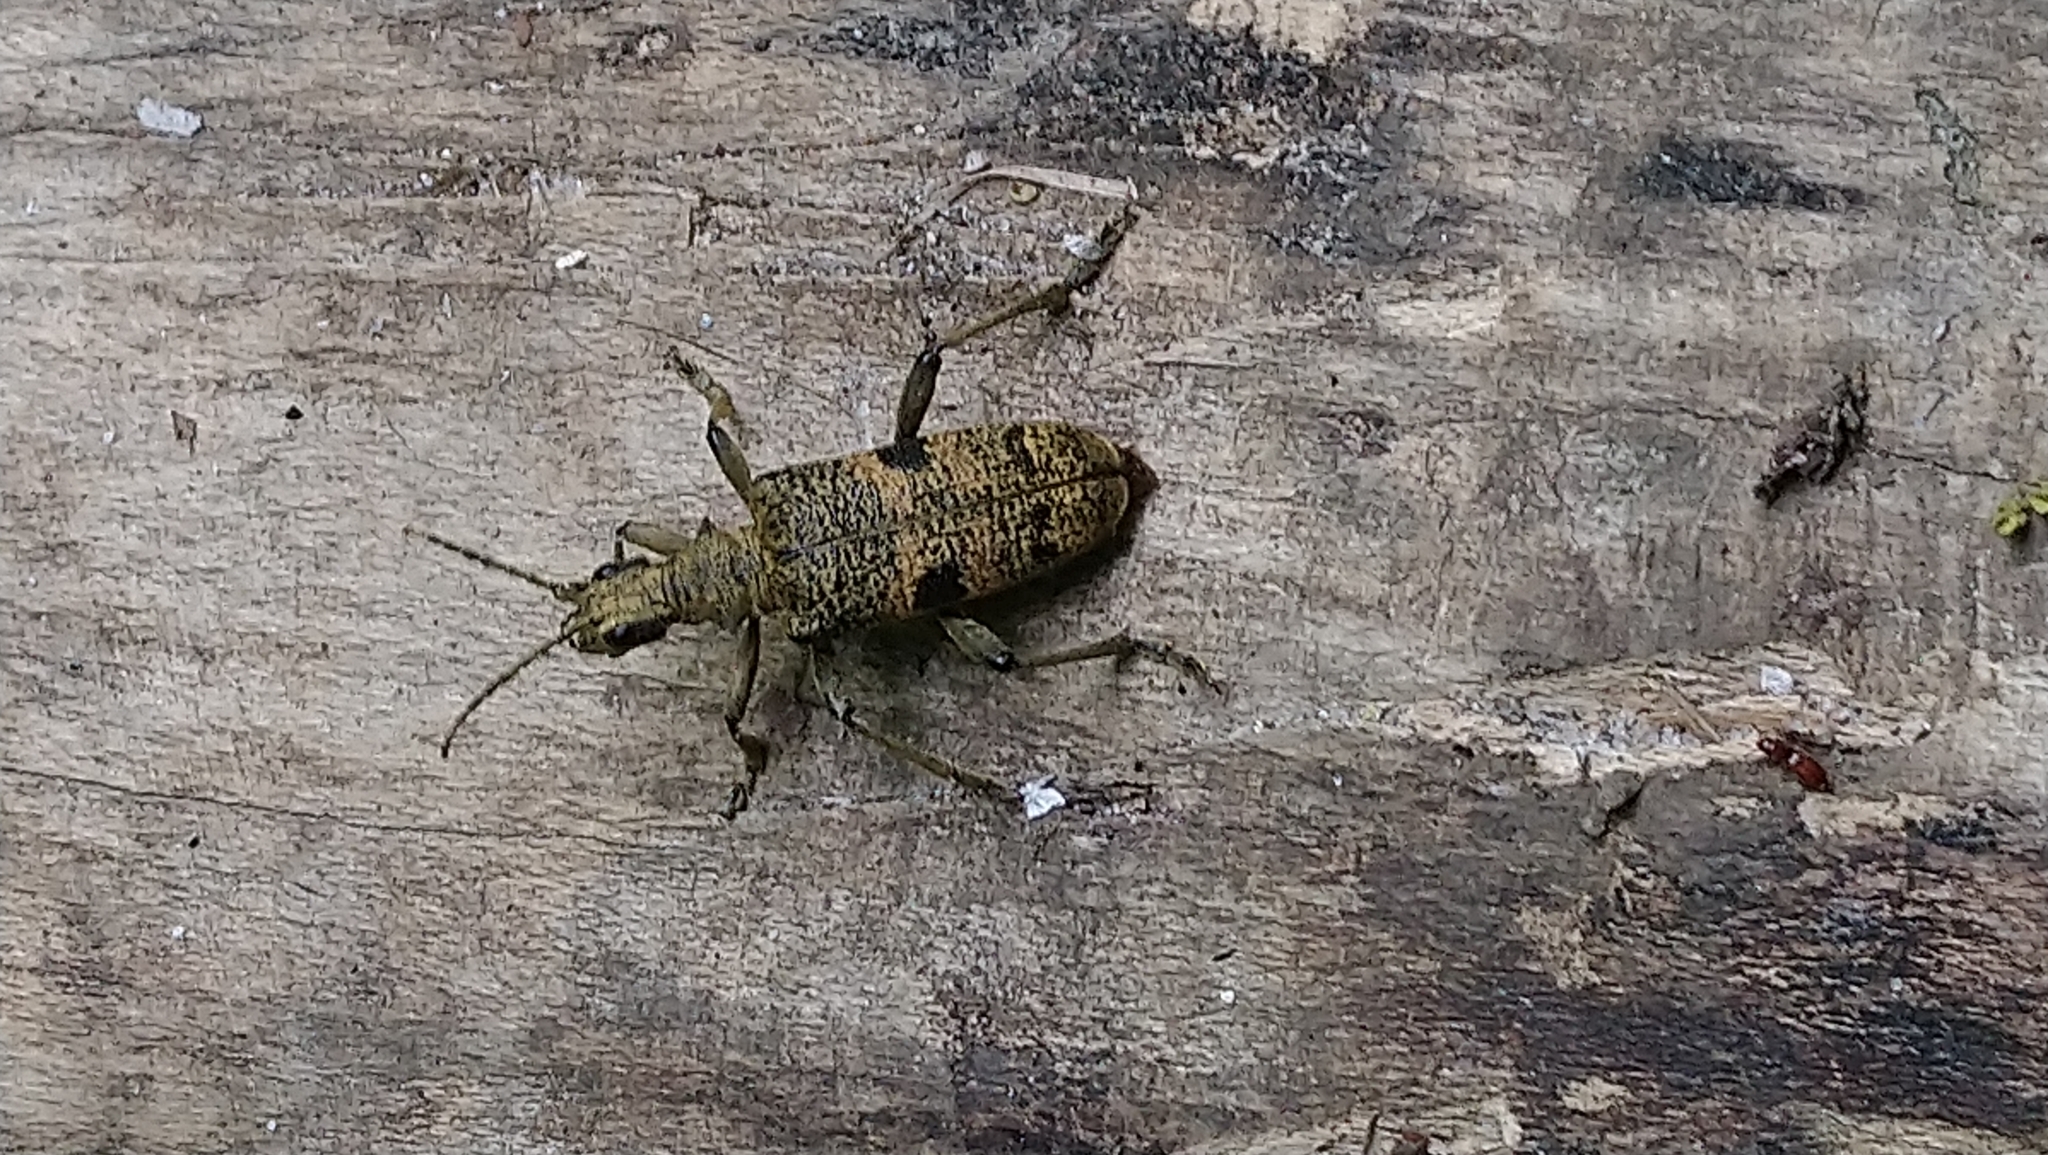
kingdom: Animalia
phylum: Arthropoda
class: Insecta
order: Coleoptera
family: Cerambycidae
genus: Rhagium
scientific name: Rhagium mordax
